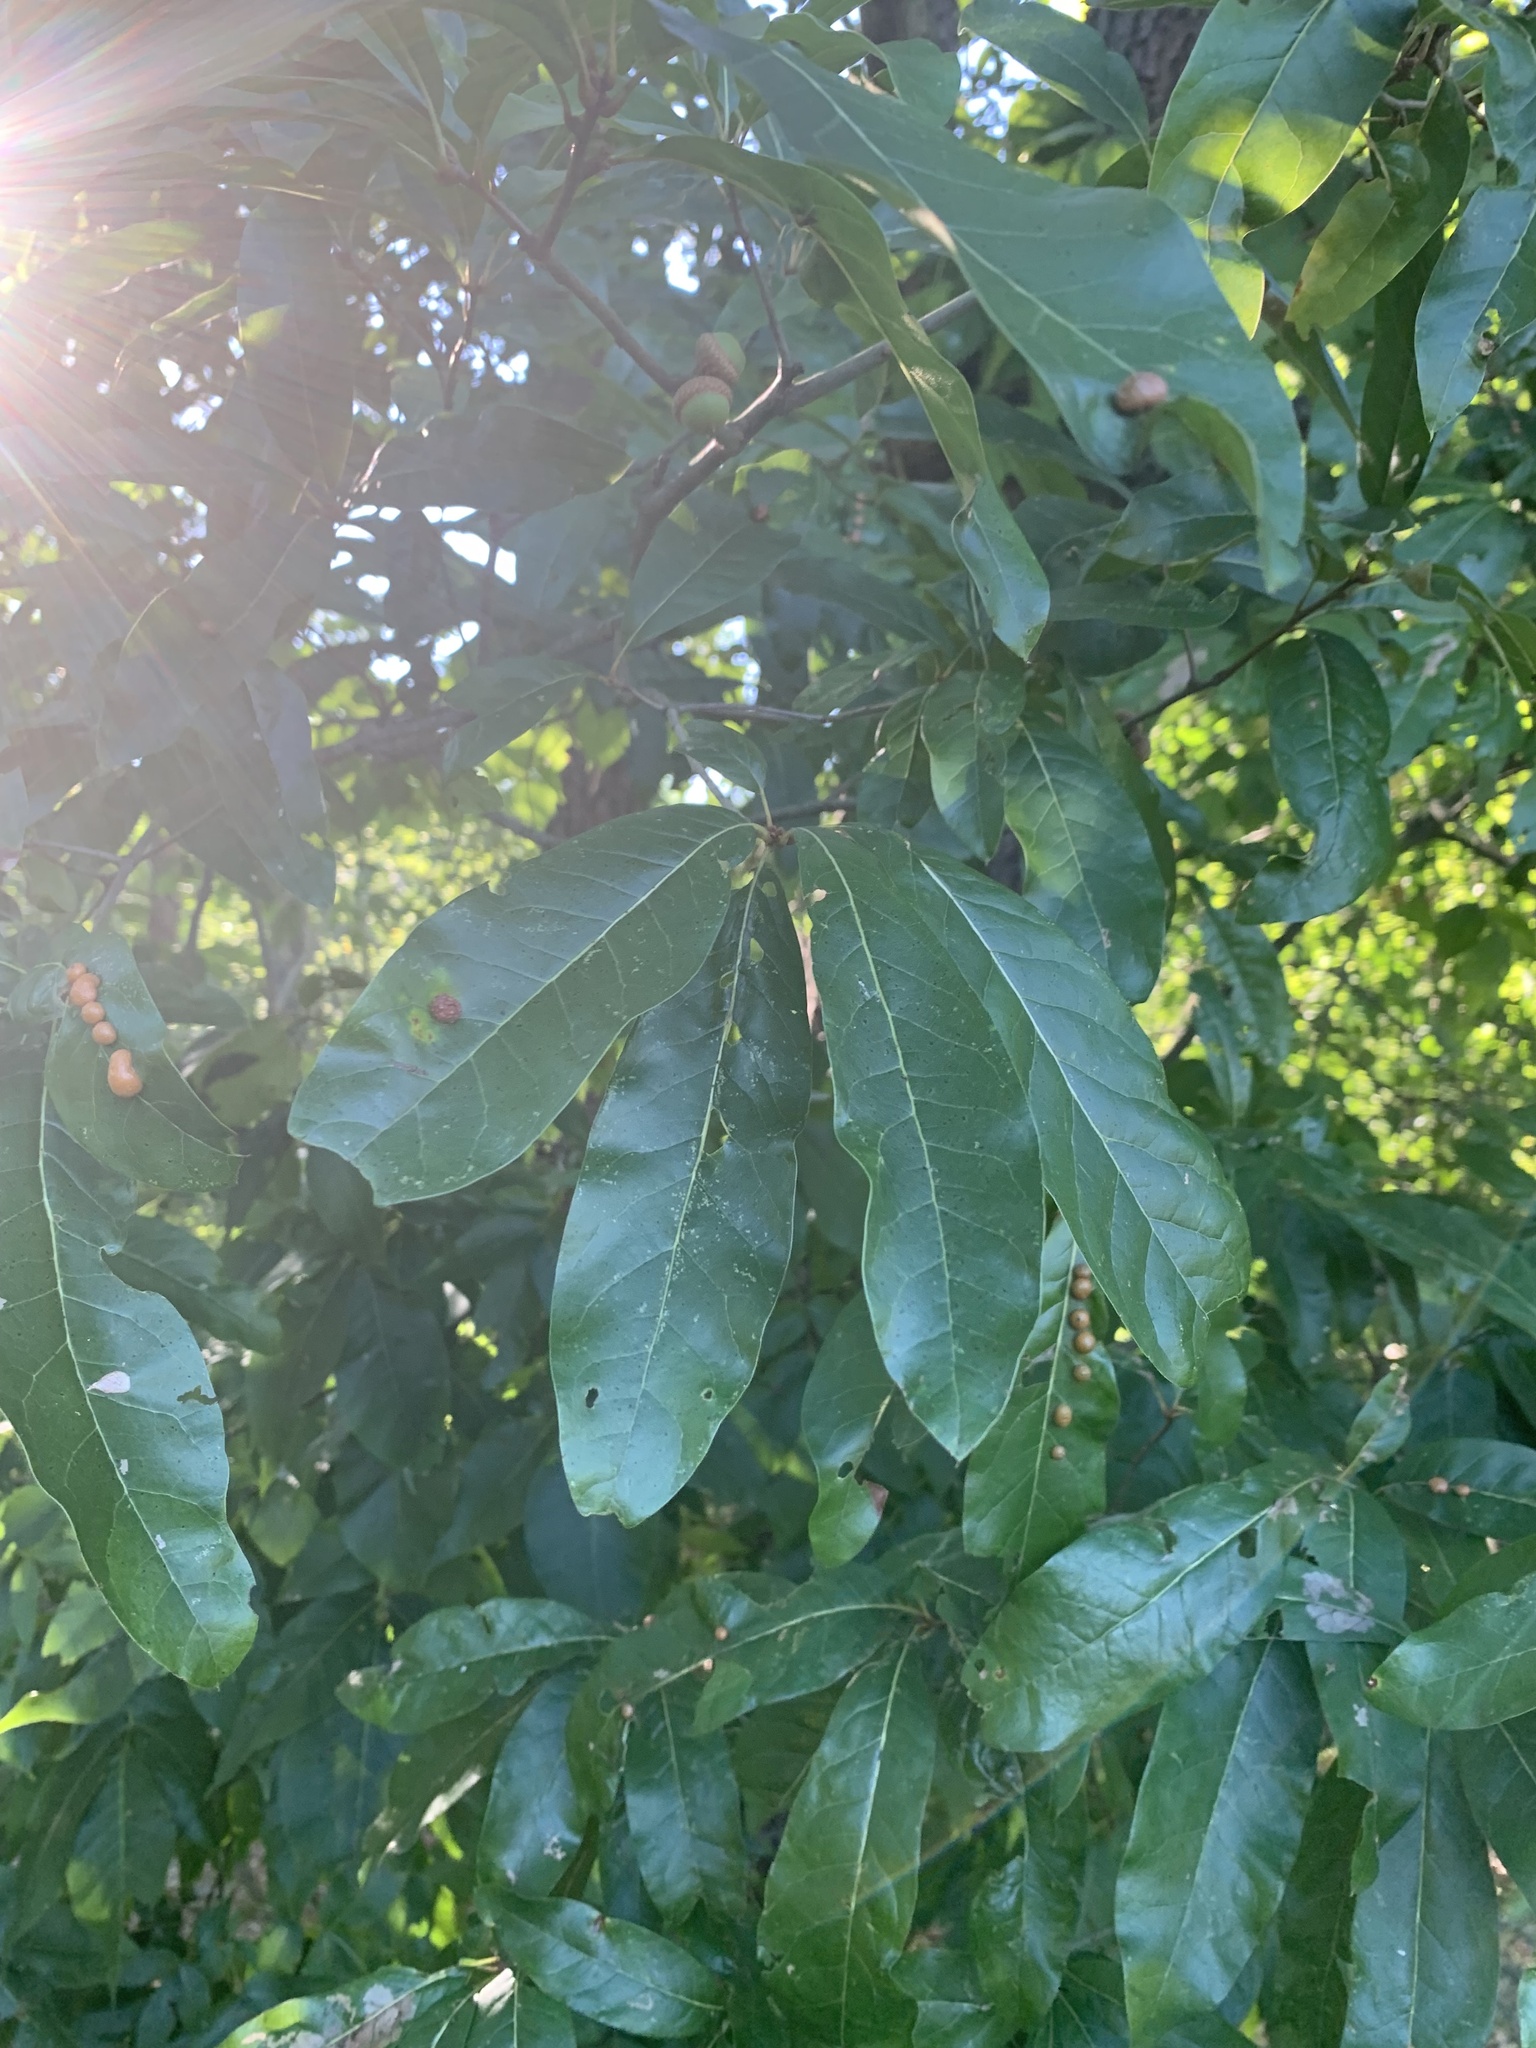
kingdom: Plantae
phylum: Tracheophyta
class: Magnoliopsida
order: Fagales
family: Fagaceae
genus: Quercus
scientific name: Quercus imbricaria
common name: Shingle oak
